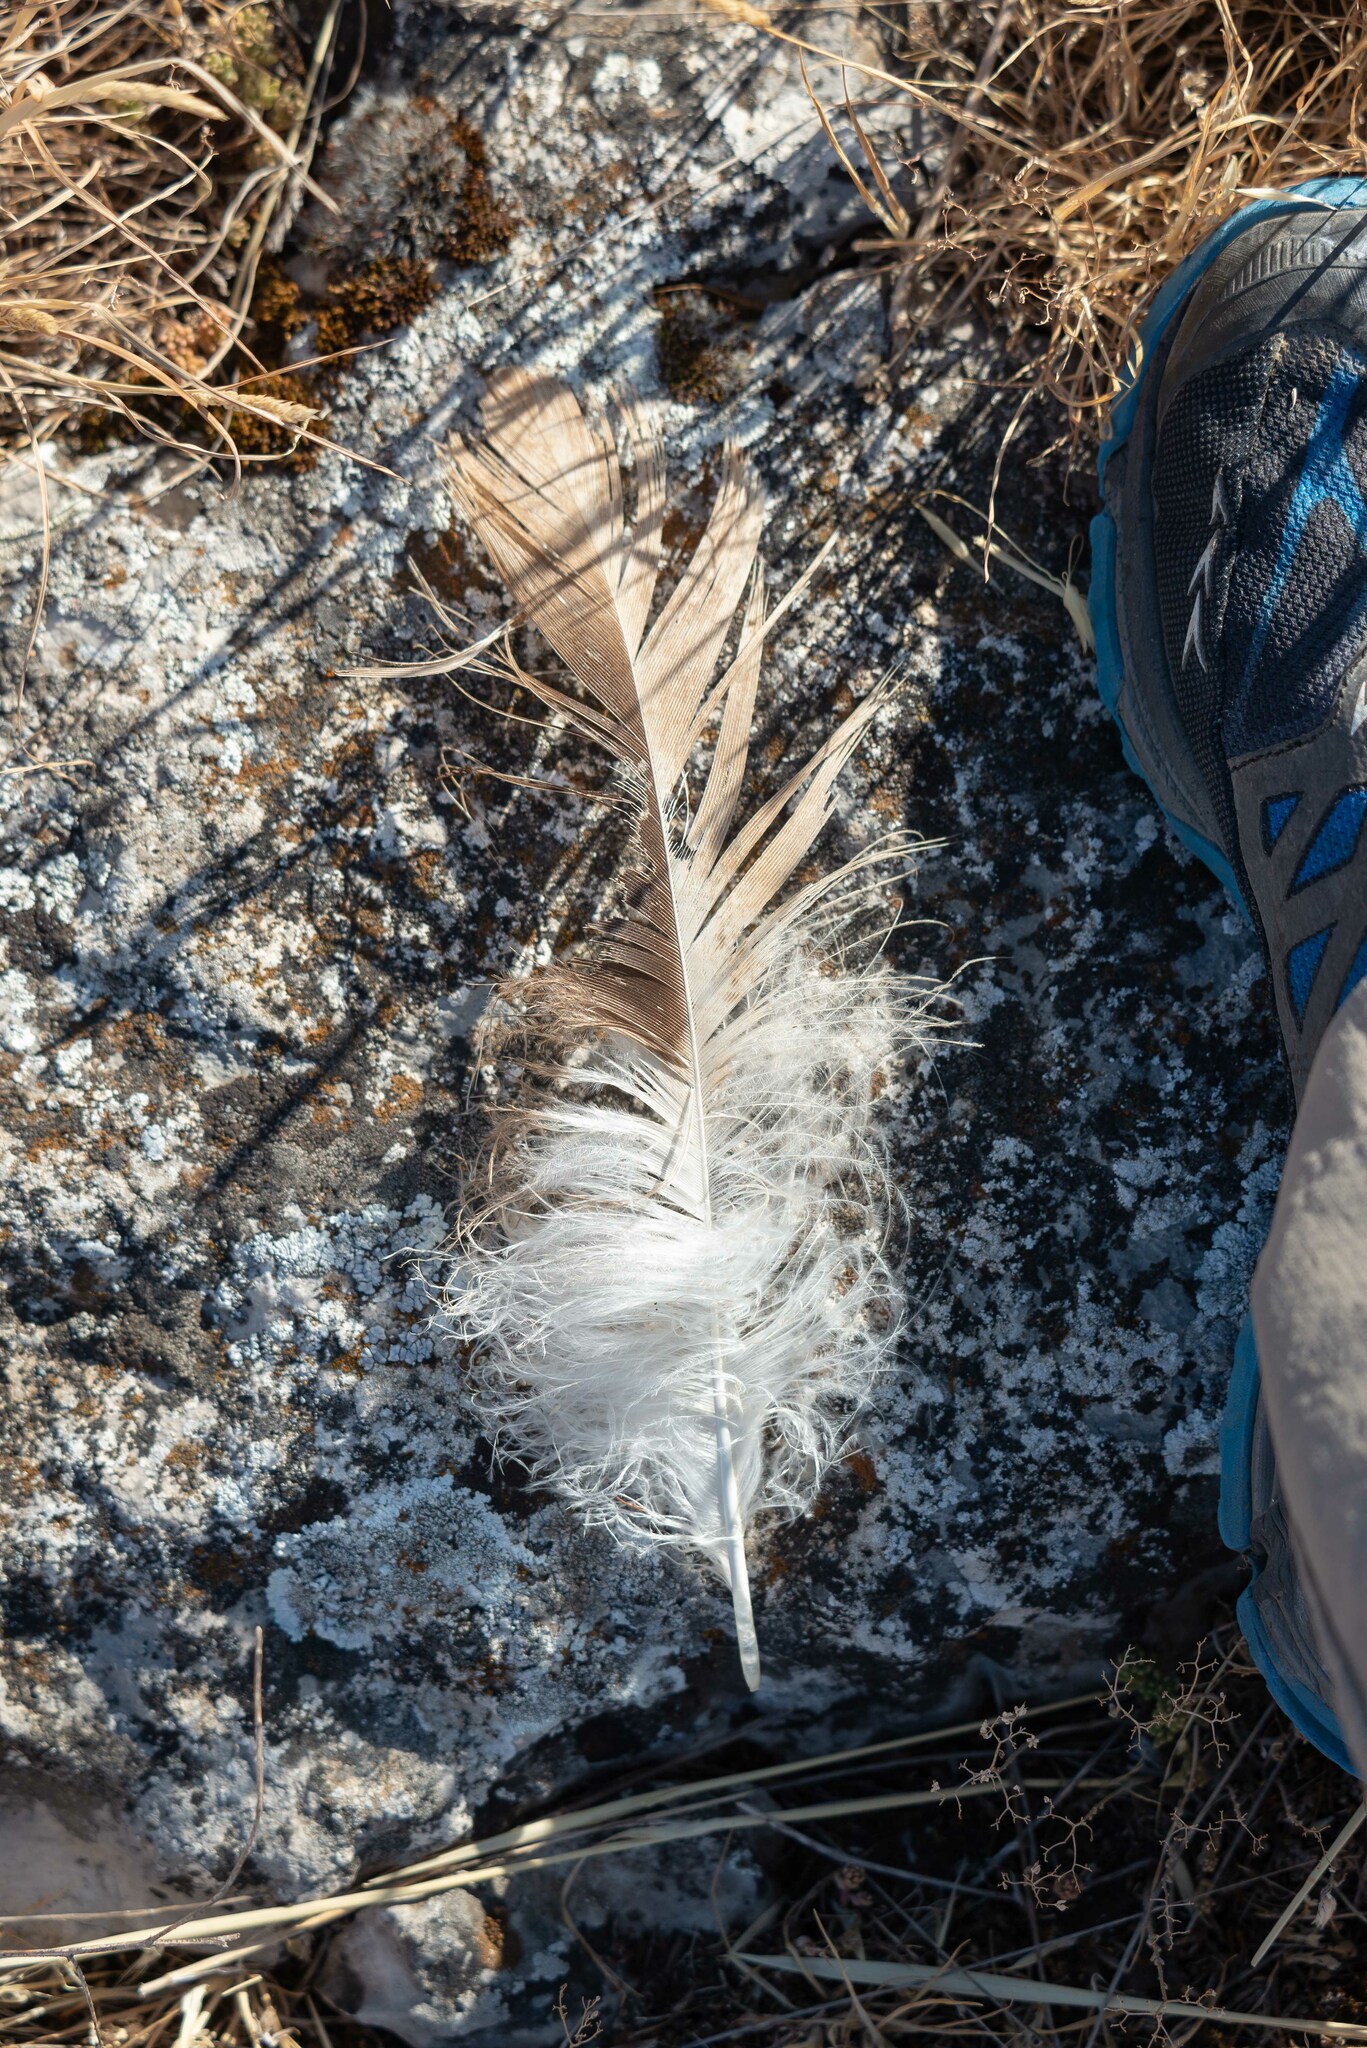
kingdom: Animalia
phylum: Chordata
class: Aves
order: Accipitriformes
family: Accipitridae
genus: Gyps
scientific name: Gyps fulvus
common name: Griffon vulture
